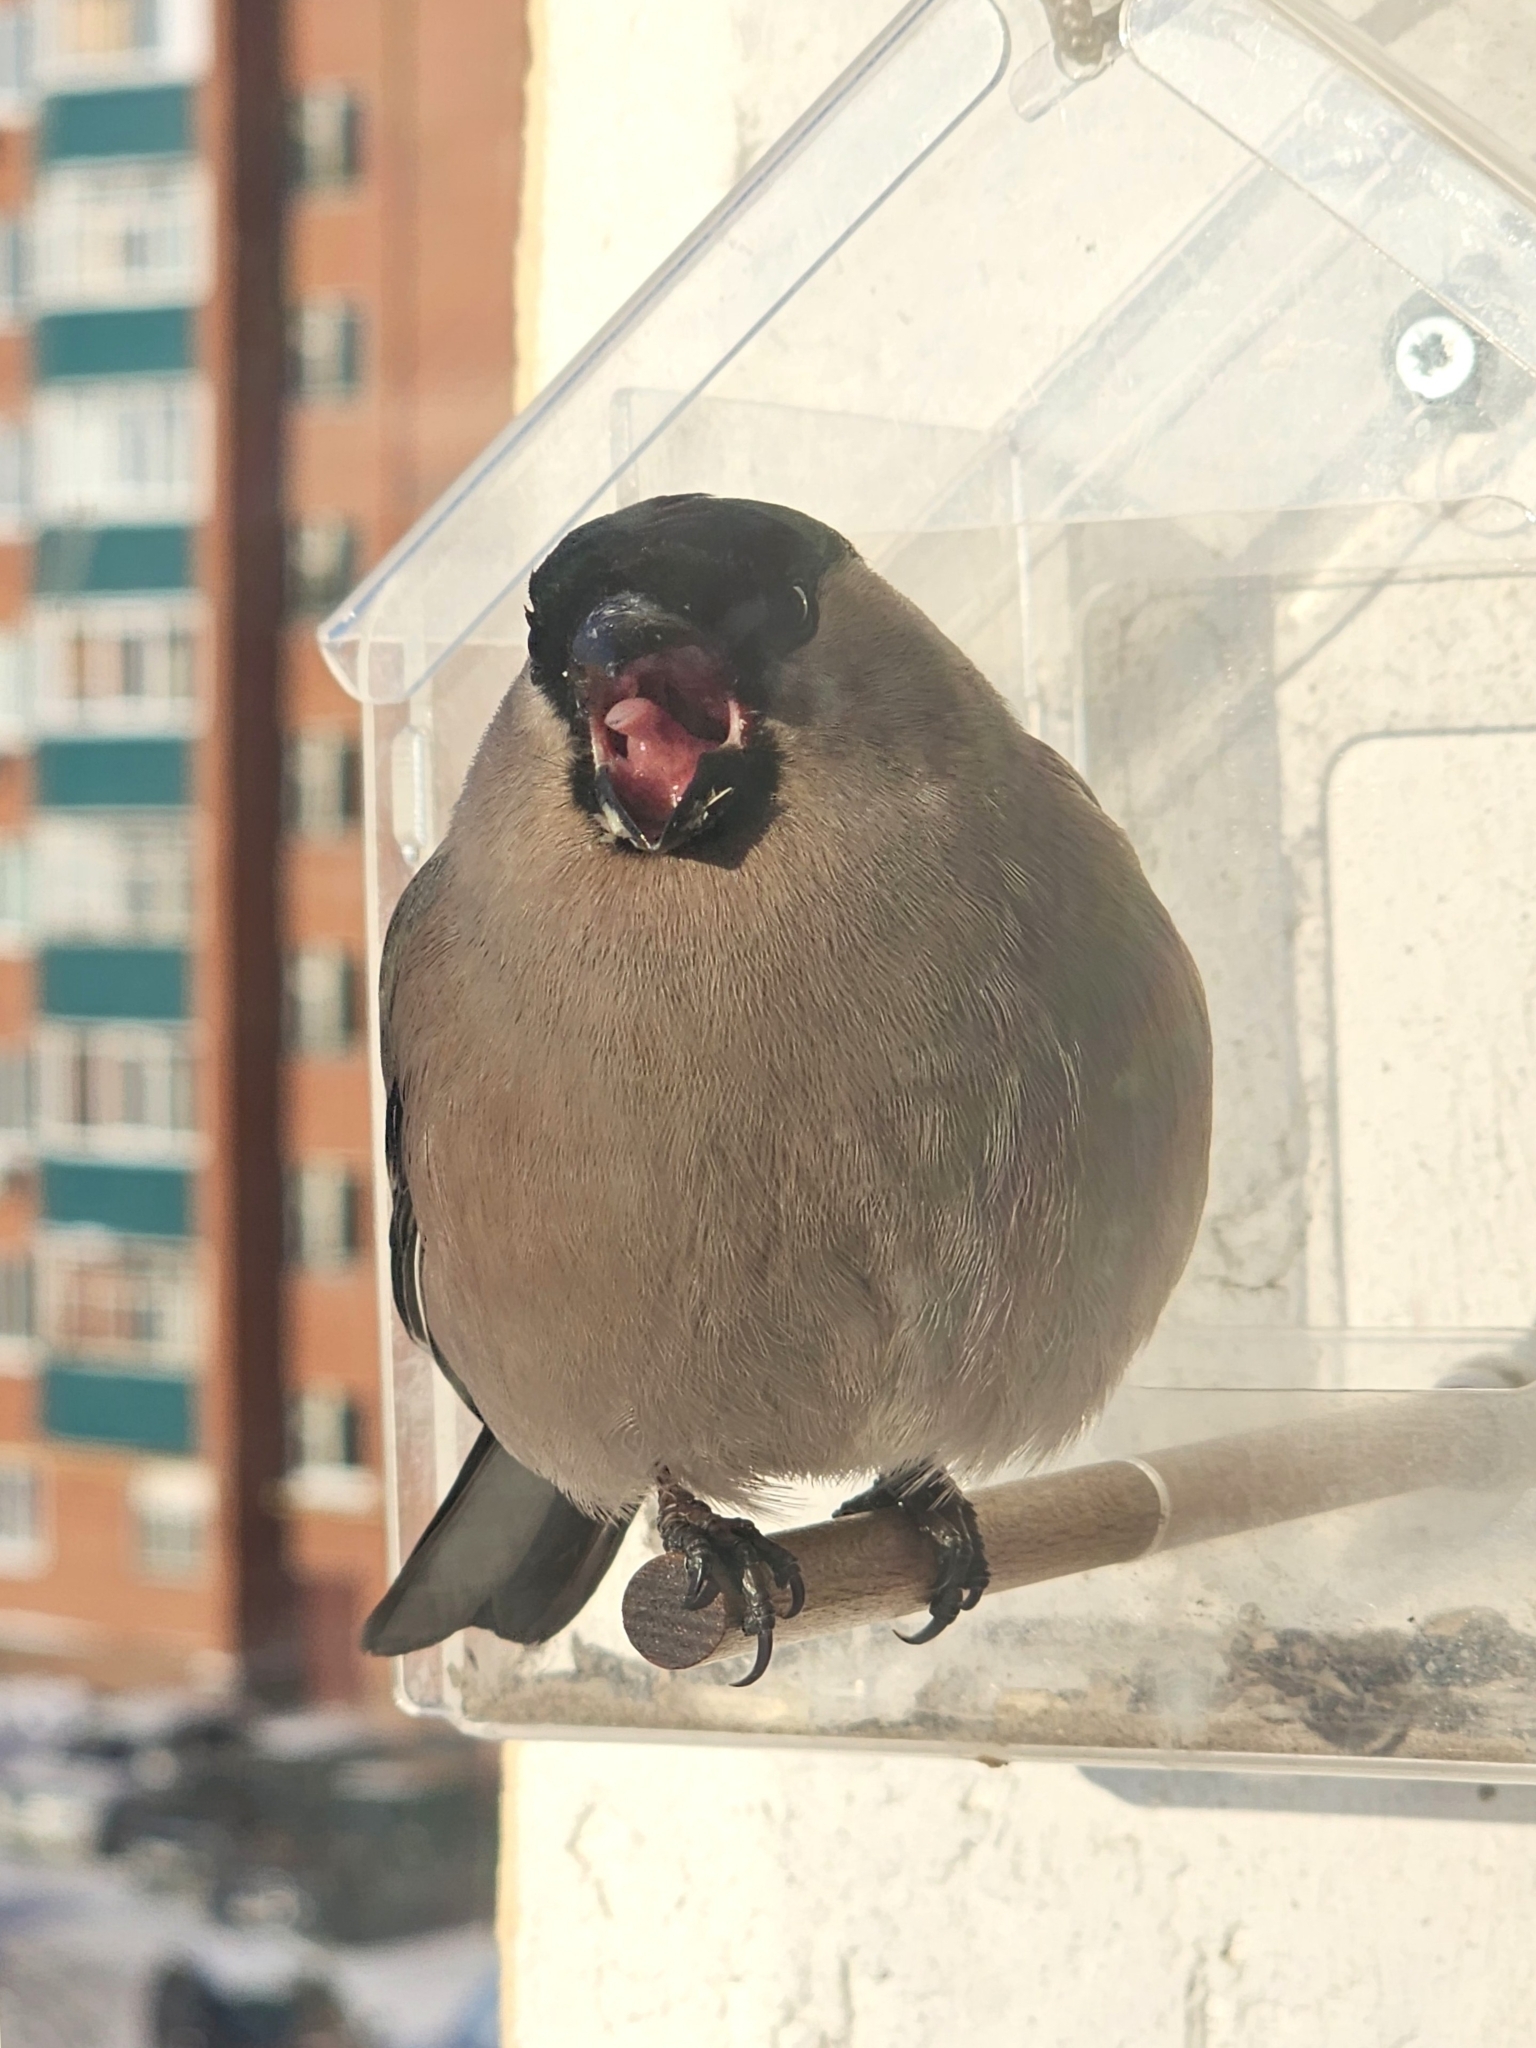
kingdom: Animalia
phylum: Chordata
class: Aves
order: Passeriformes
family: Fringillidae
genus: Pyrrhula
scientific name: Pyrrhula pyrrhula
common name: Eurasian bullfinch
